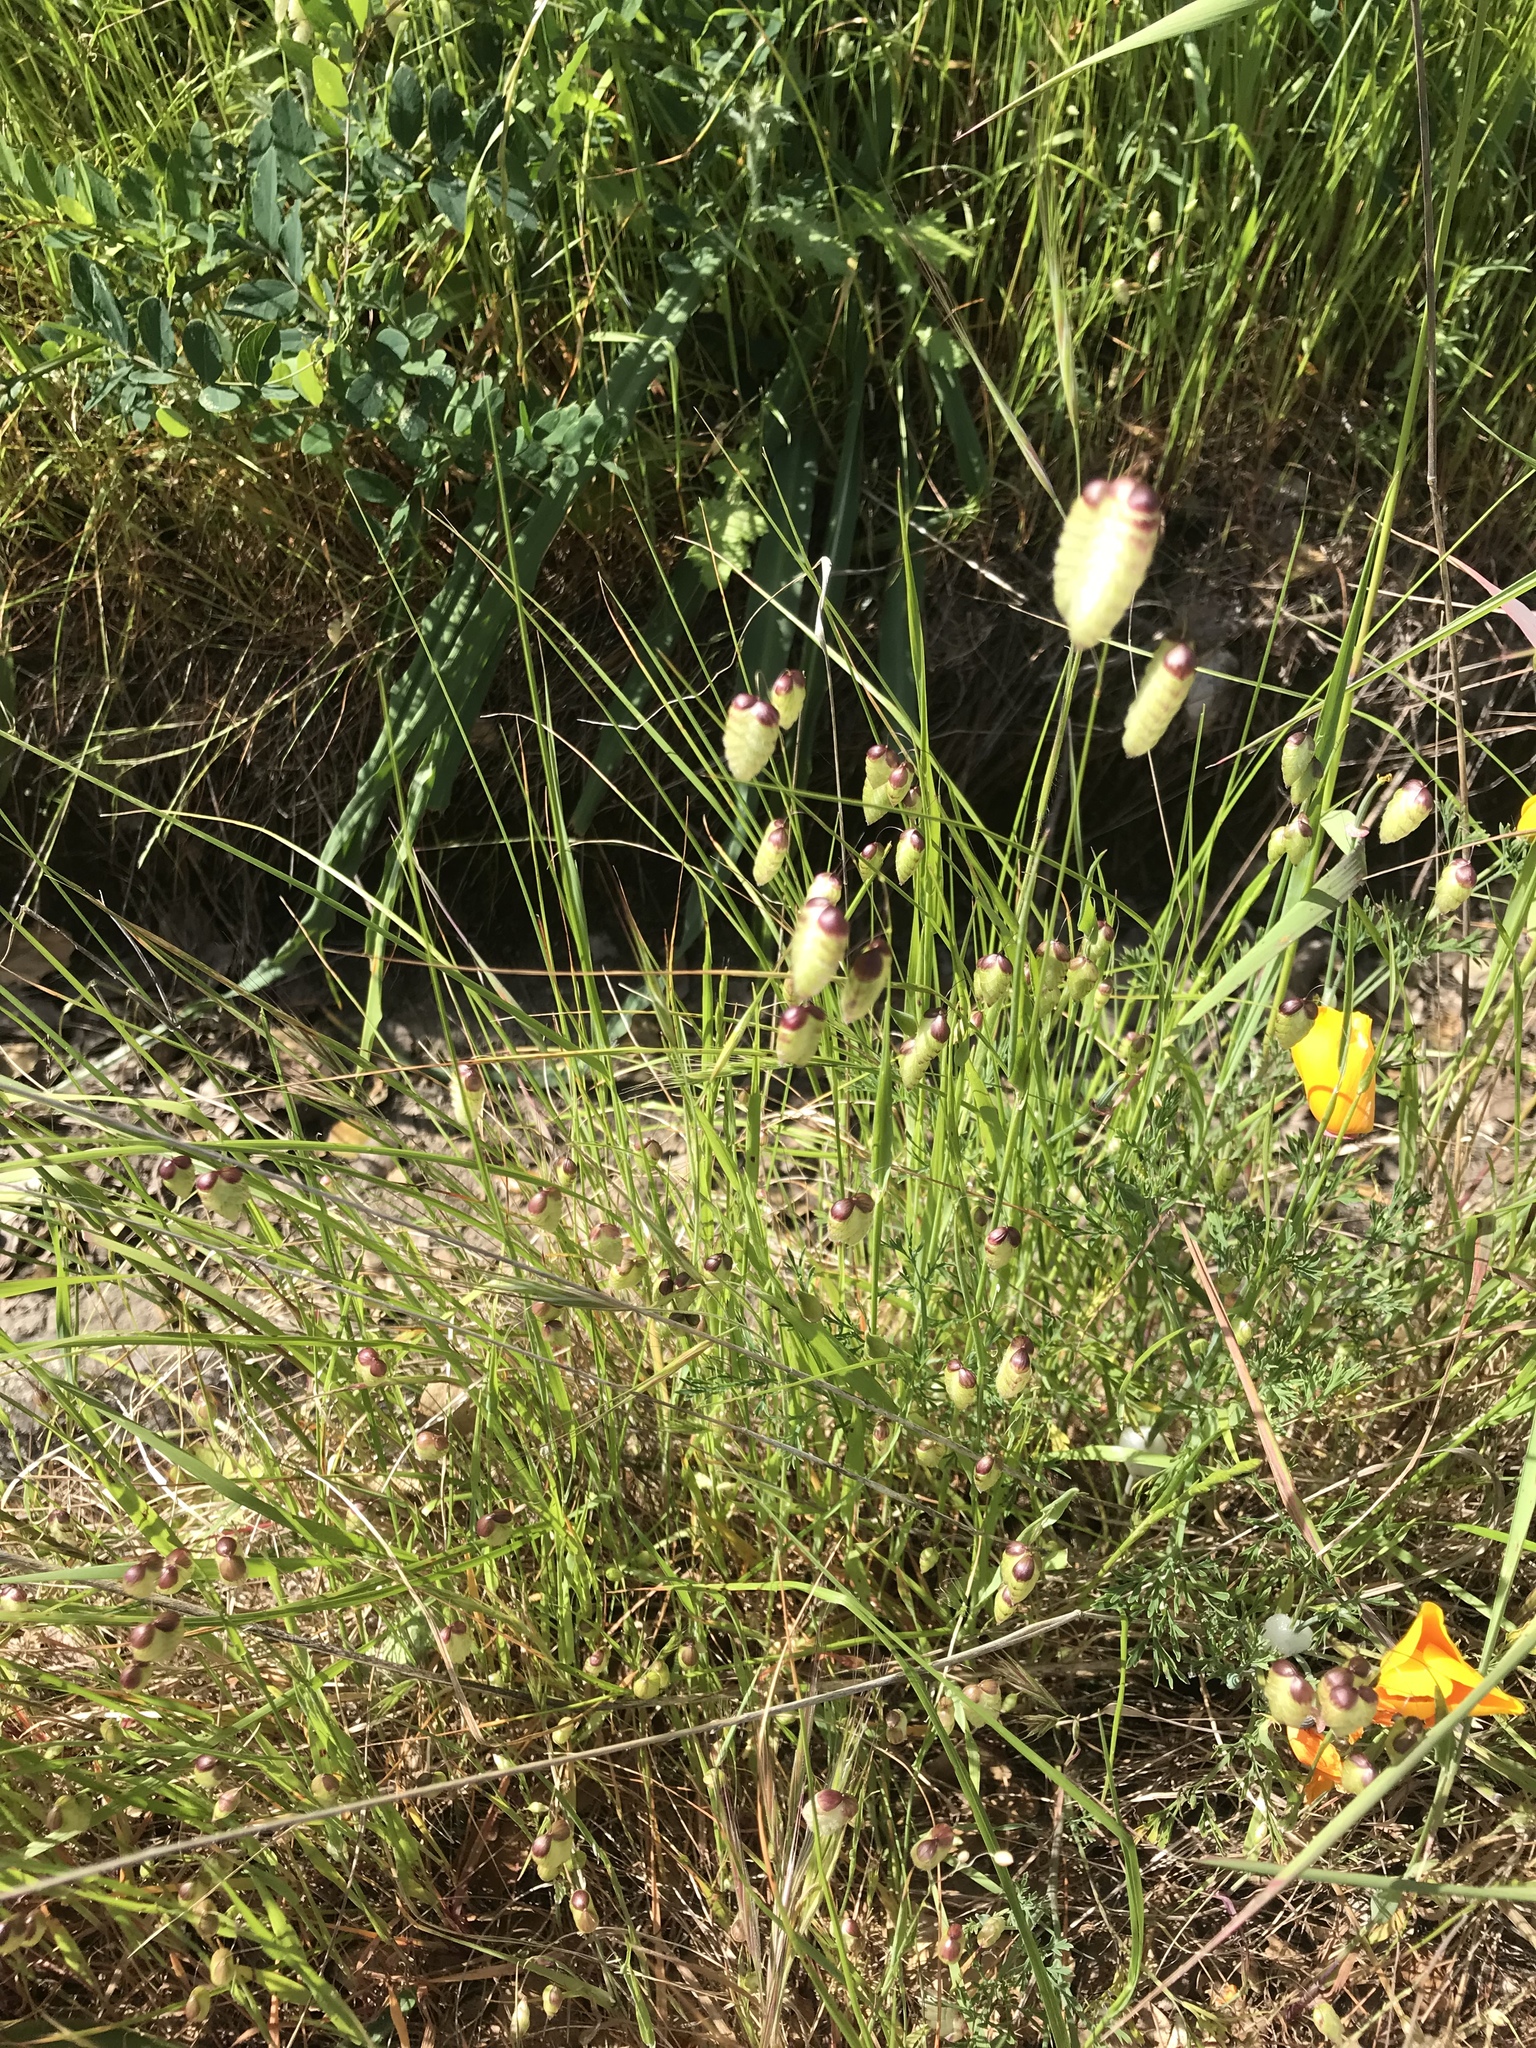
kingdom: Plantae
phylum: Tracheophyta
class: Liliopsida
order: Poales
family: Poaceae
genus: Briza
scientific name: Briza maxima
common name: Big quakinggrass
